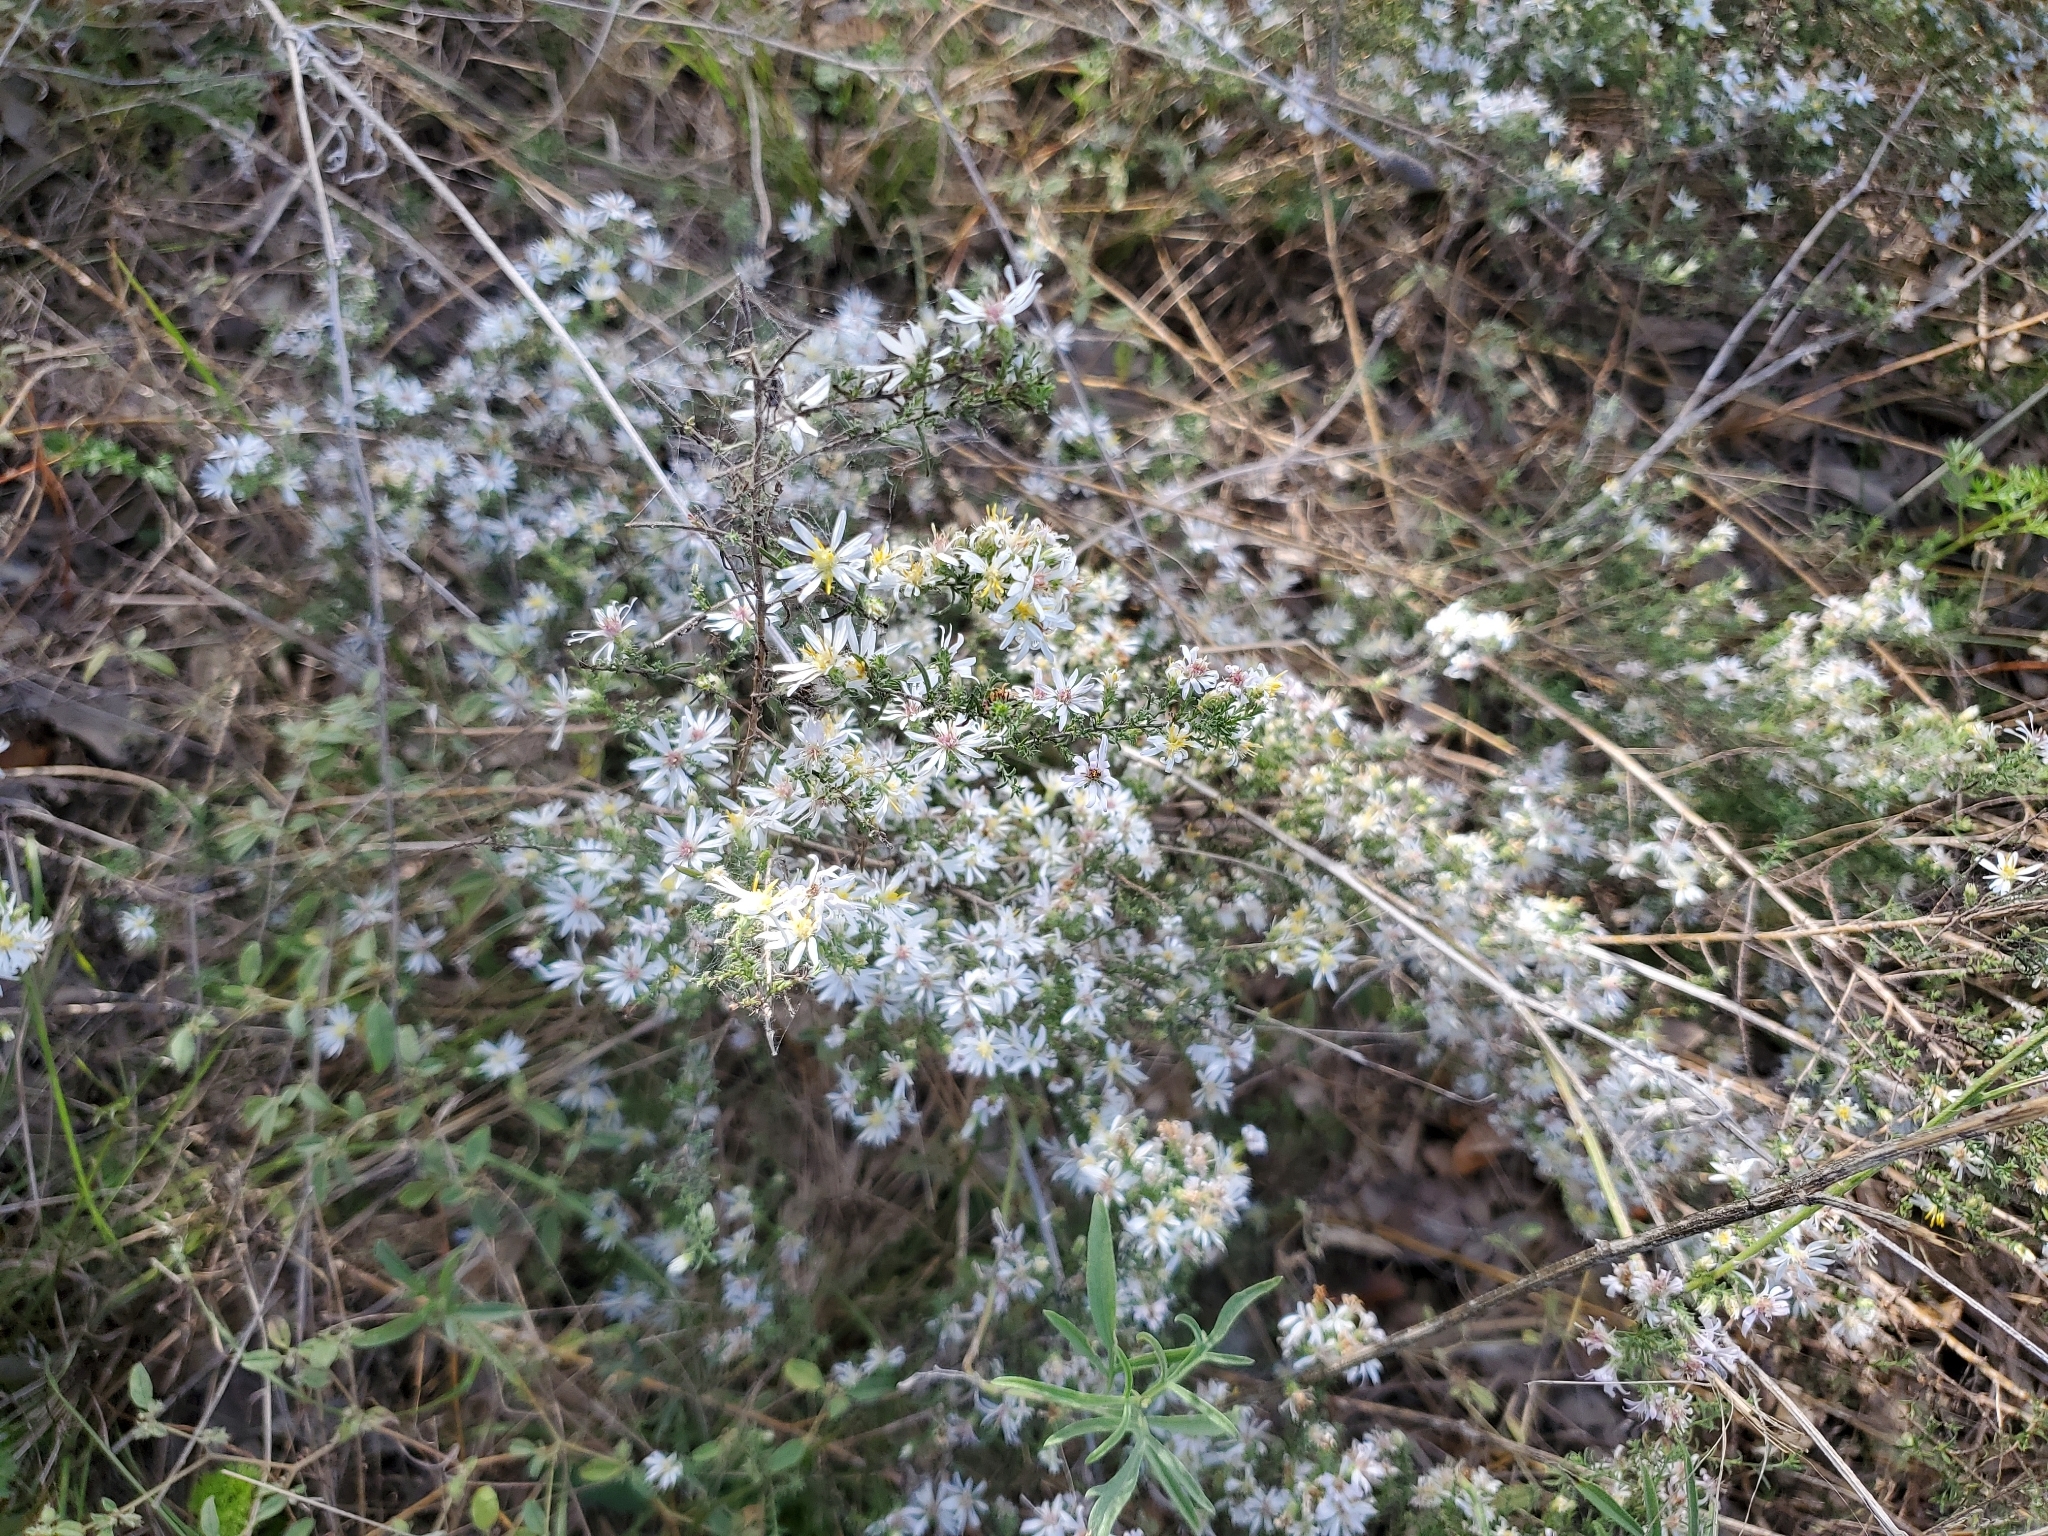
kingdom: Plantae
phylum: Tracheophyta
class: Magnoliopsida
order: Asterales
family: Asteraceae
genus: Symphyotrichum
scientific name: Symphyotrichum ericoides
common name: Heath aster
